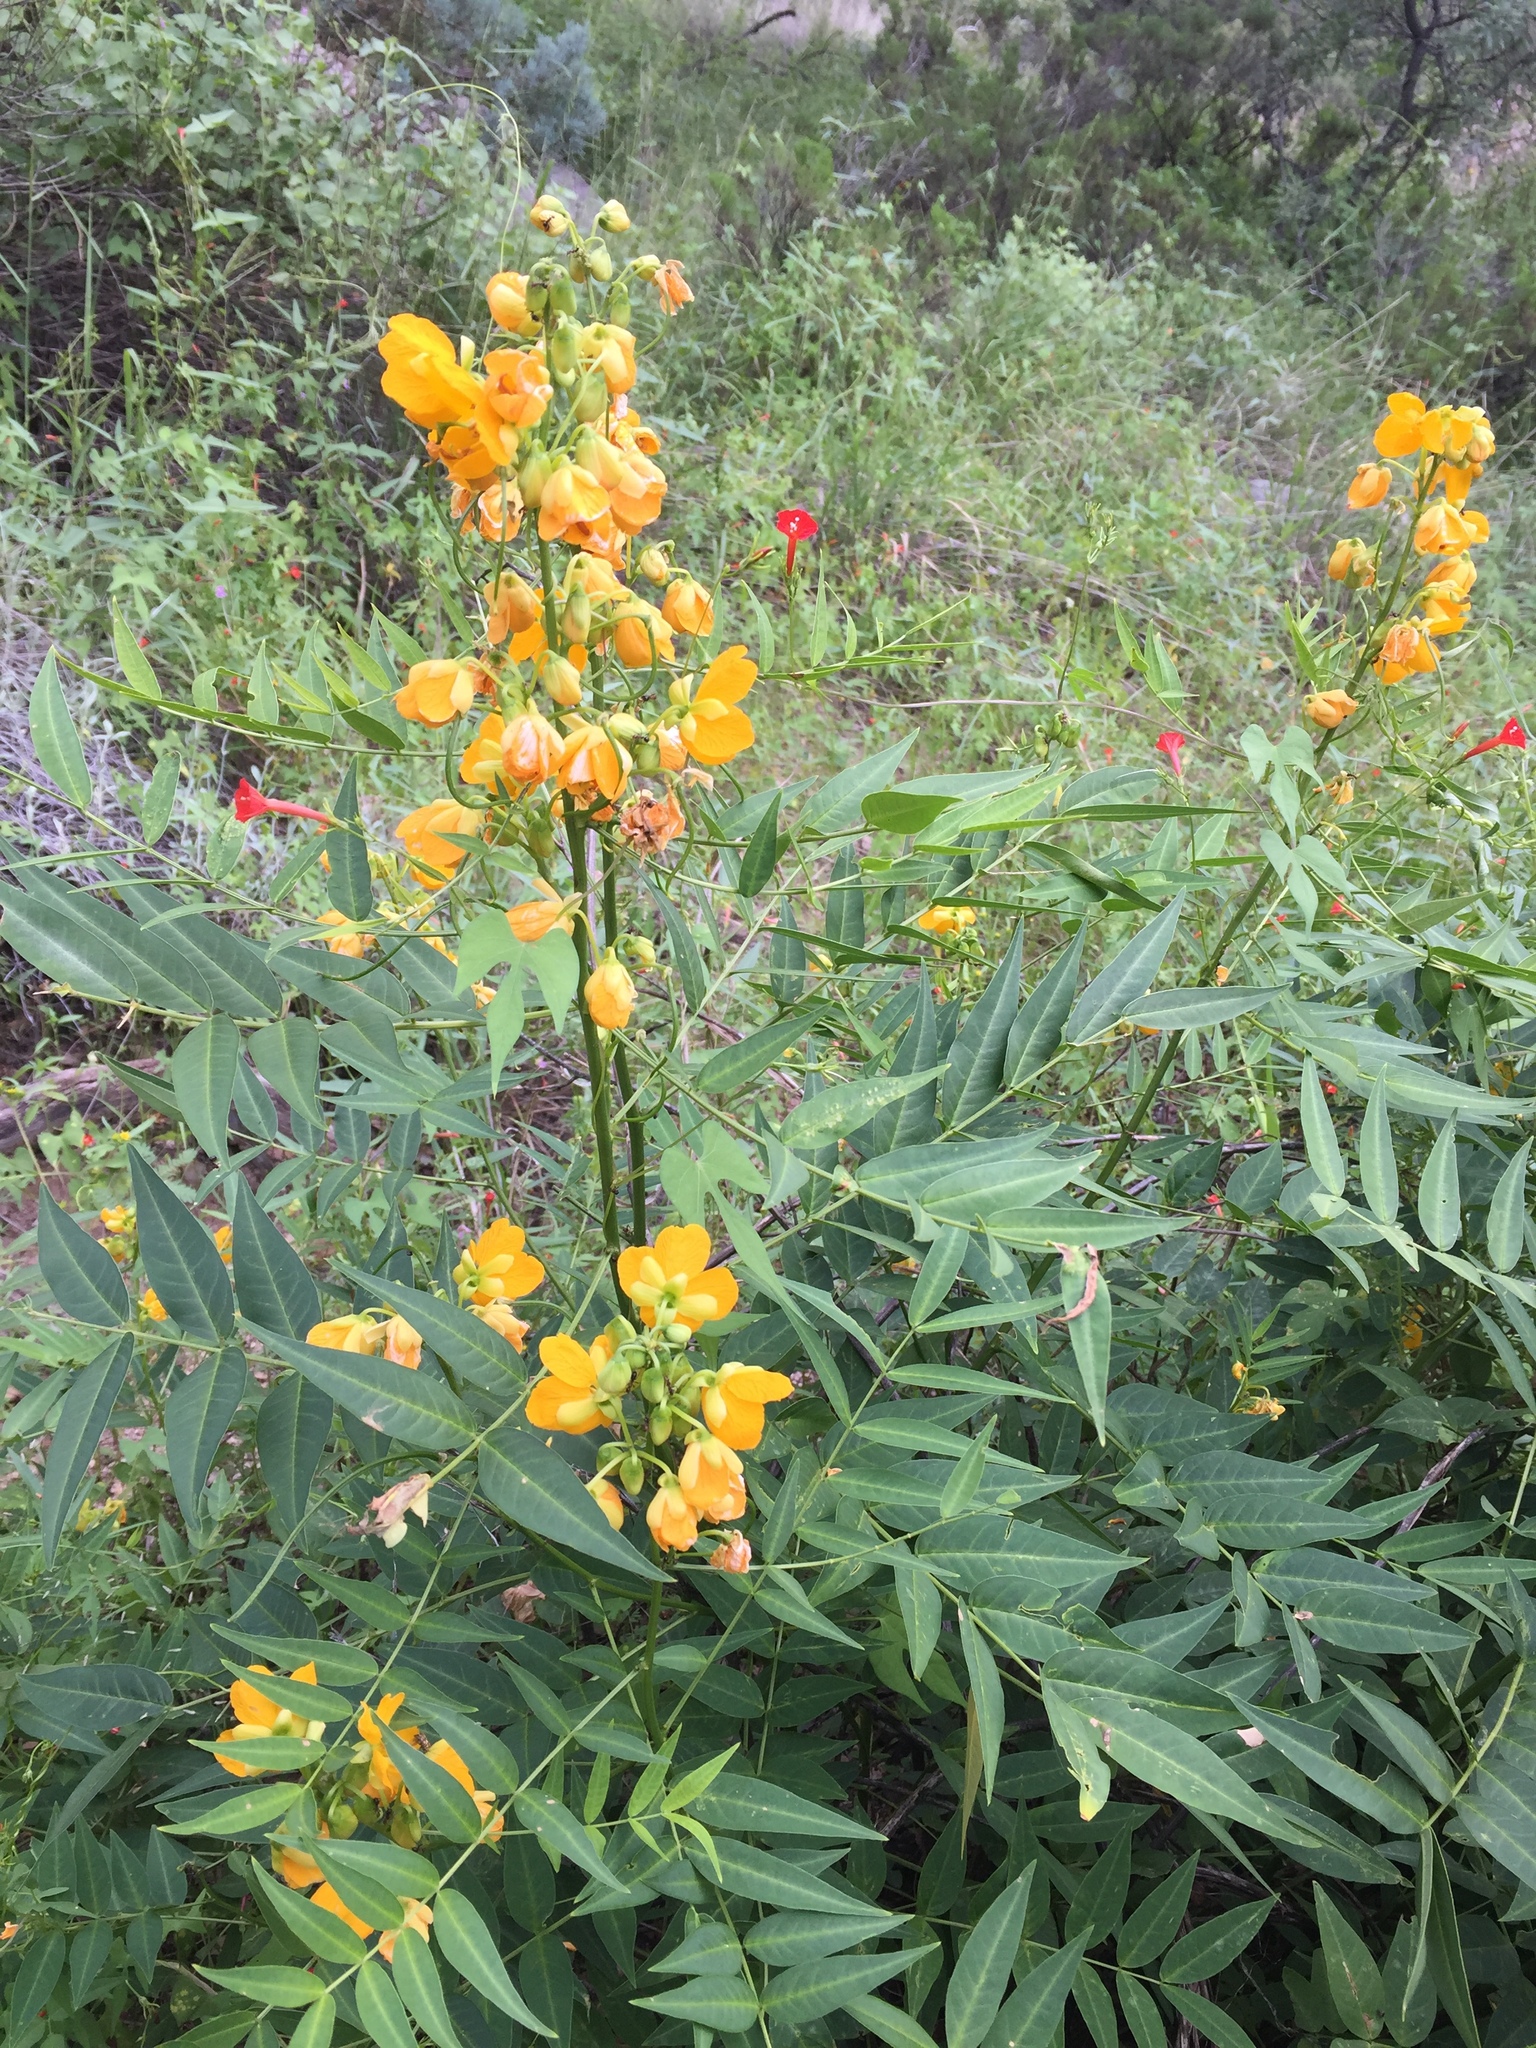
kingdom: Plantae
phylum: Tracheophyta
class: Magnoliopsida
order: Fabales
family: Fabaceae
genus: Senna
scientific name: Senna hirsuta
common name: Woolly senna
